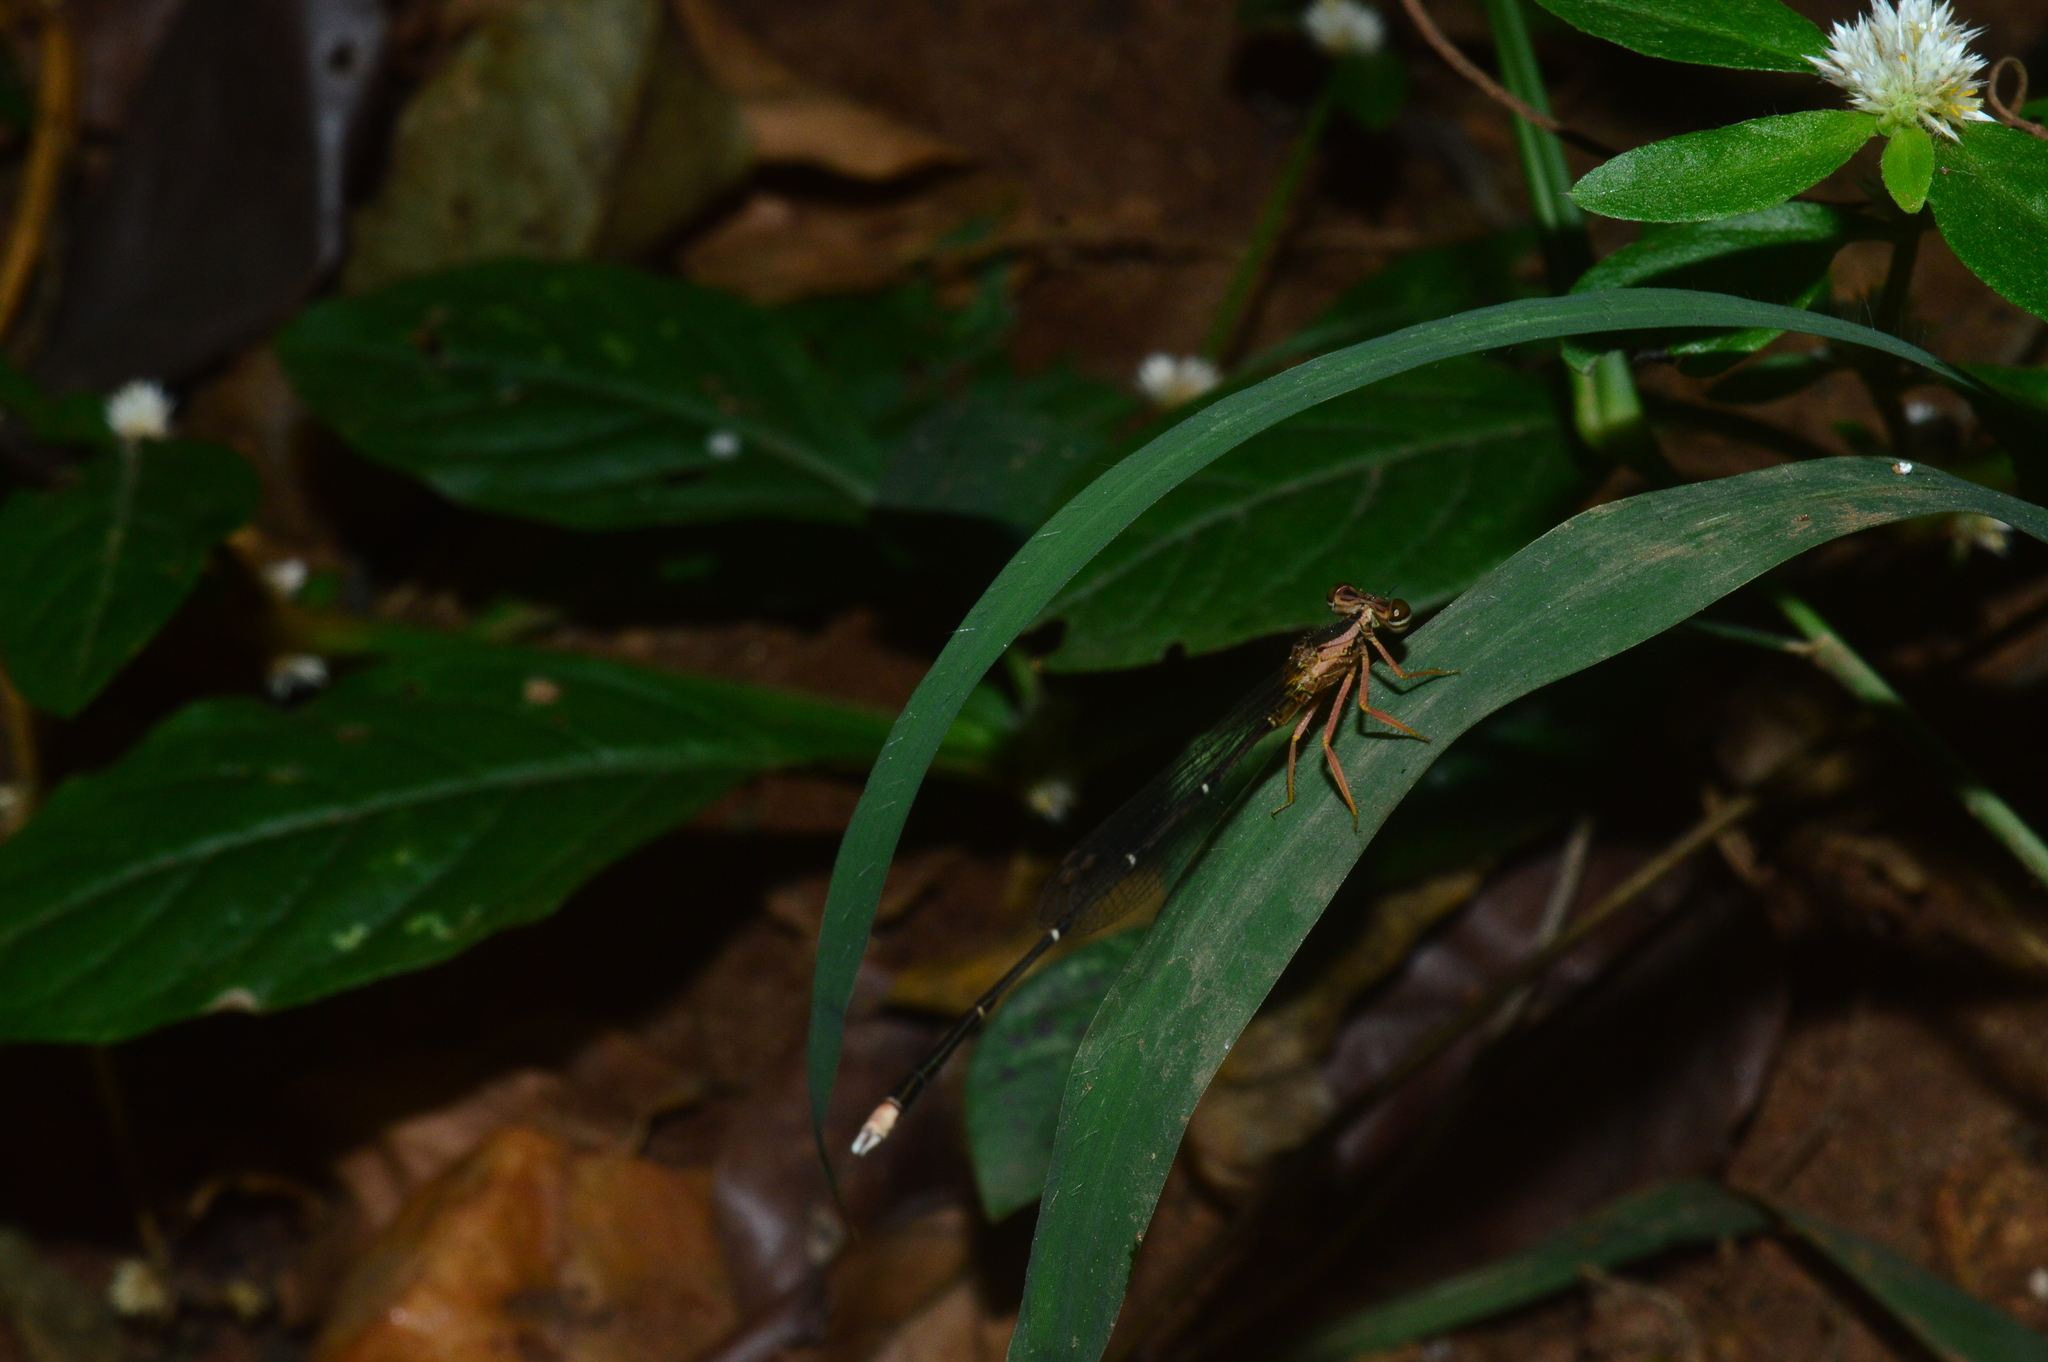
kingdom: Animalia
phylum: Arthropoda
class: Insecta
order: Odonata
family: Platycnemididae
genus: Copera
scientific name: Copera marginipes
